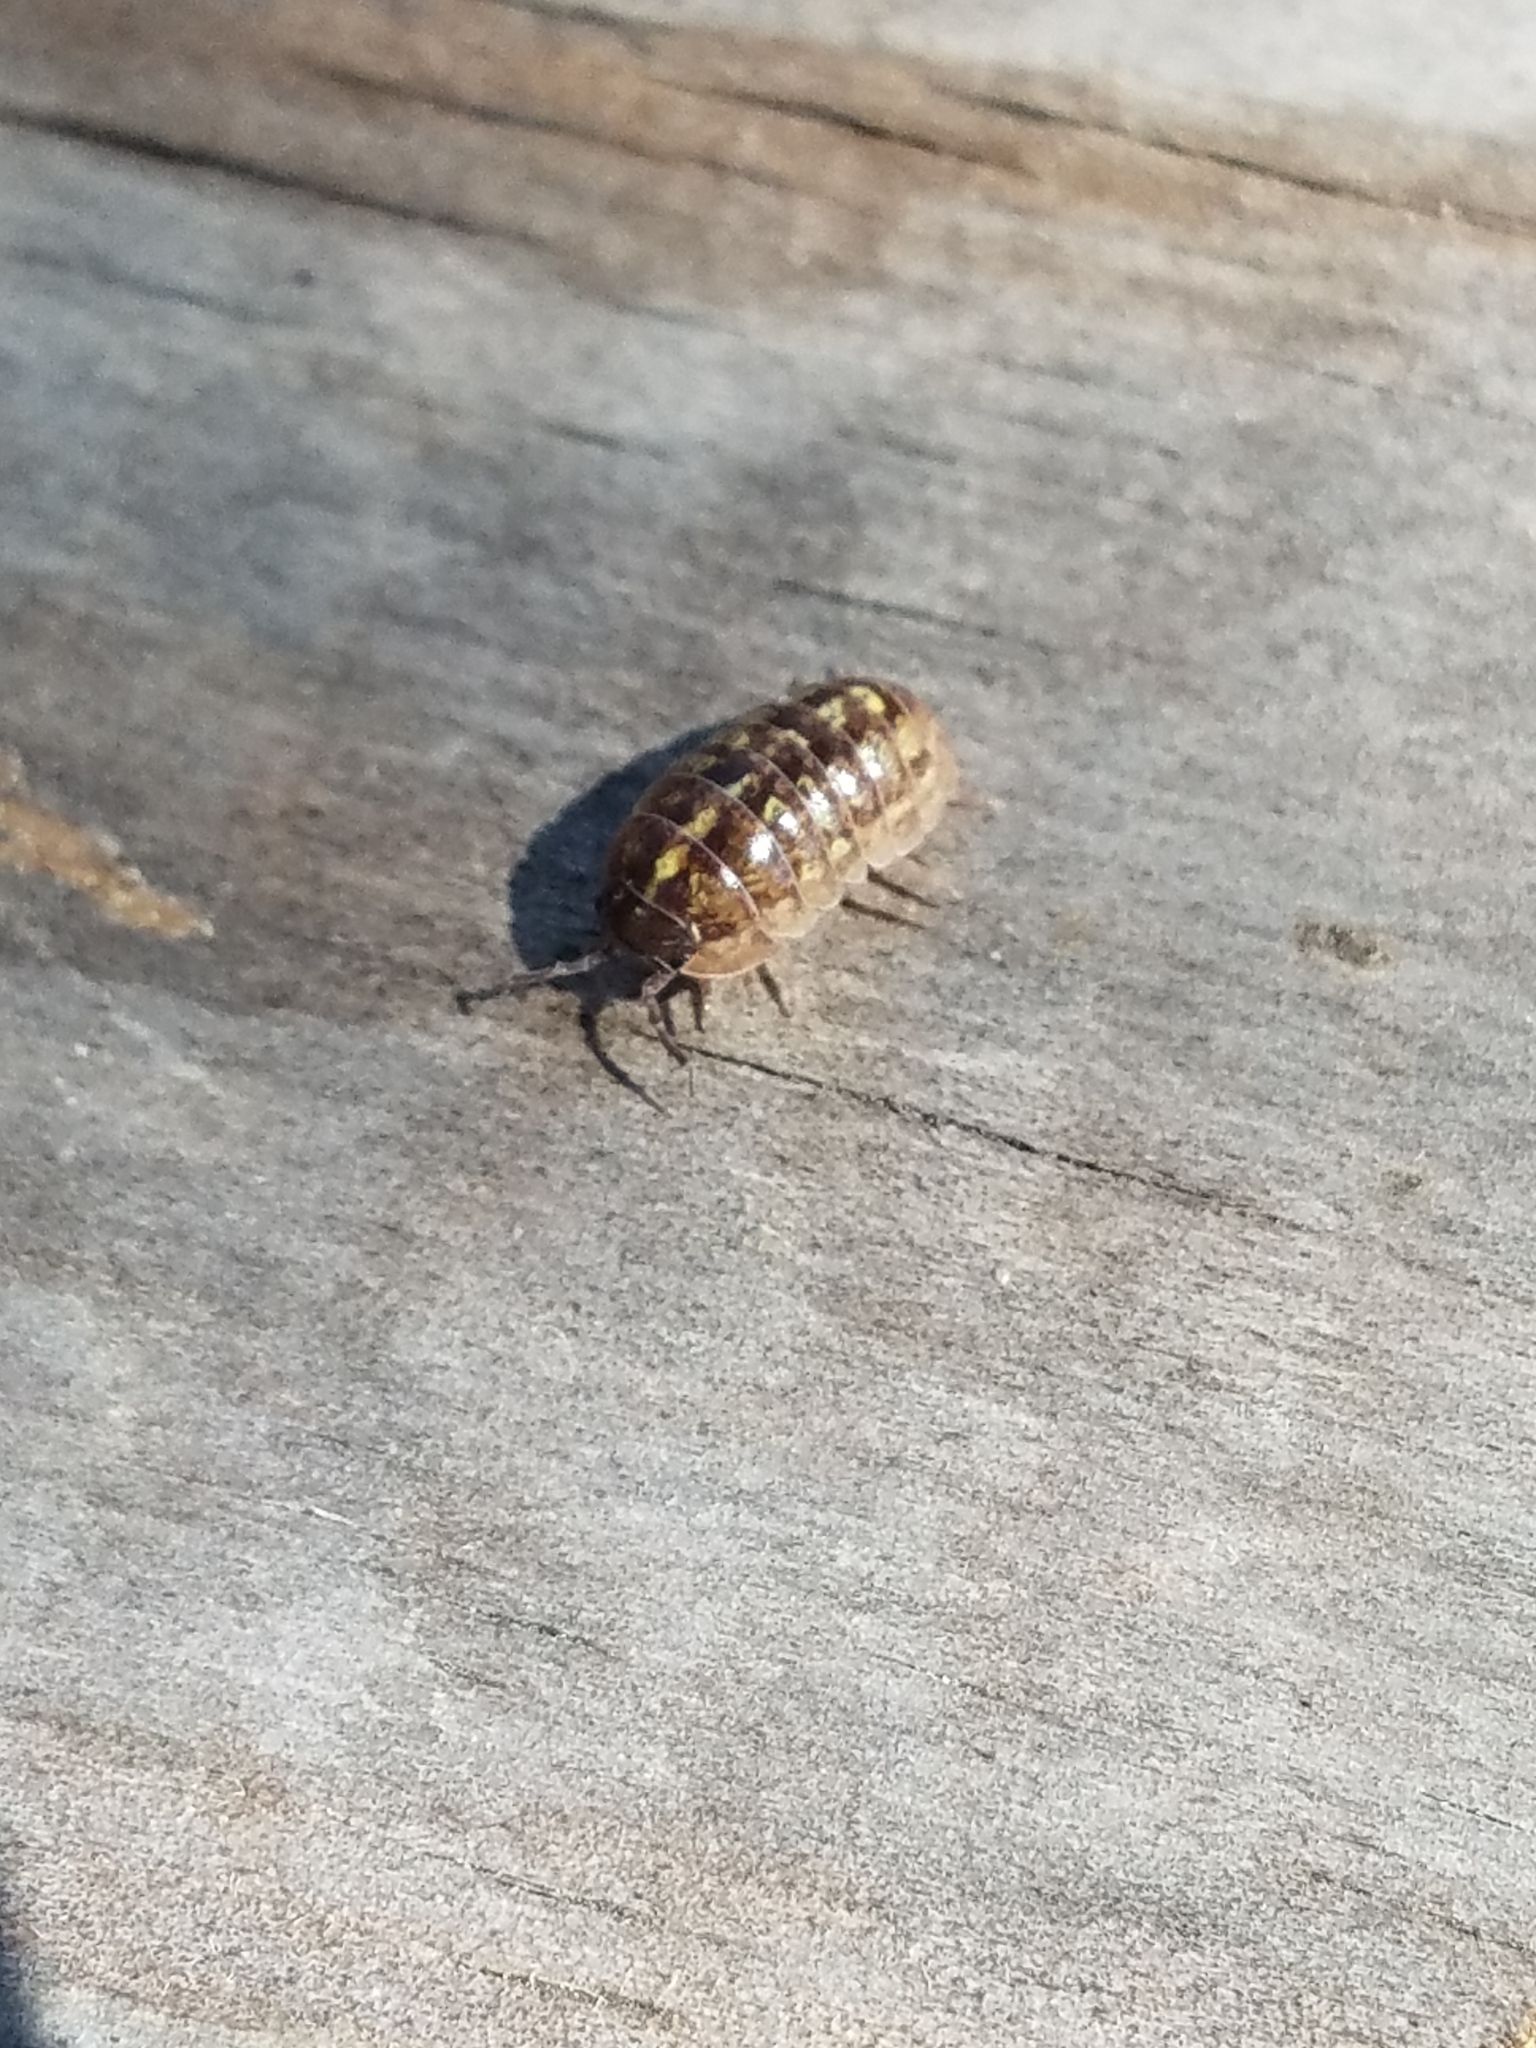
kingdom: Animalia
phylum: Arthropoda
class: Malacostraca
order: Isopoda
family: Armadillidiidae
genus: Armadillidium
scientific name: Armadillidium vulgare
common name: Common pill woodlouse
